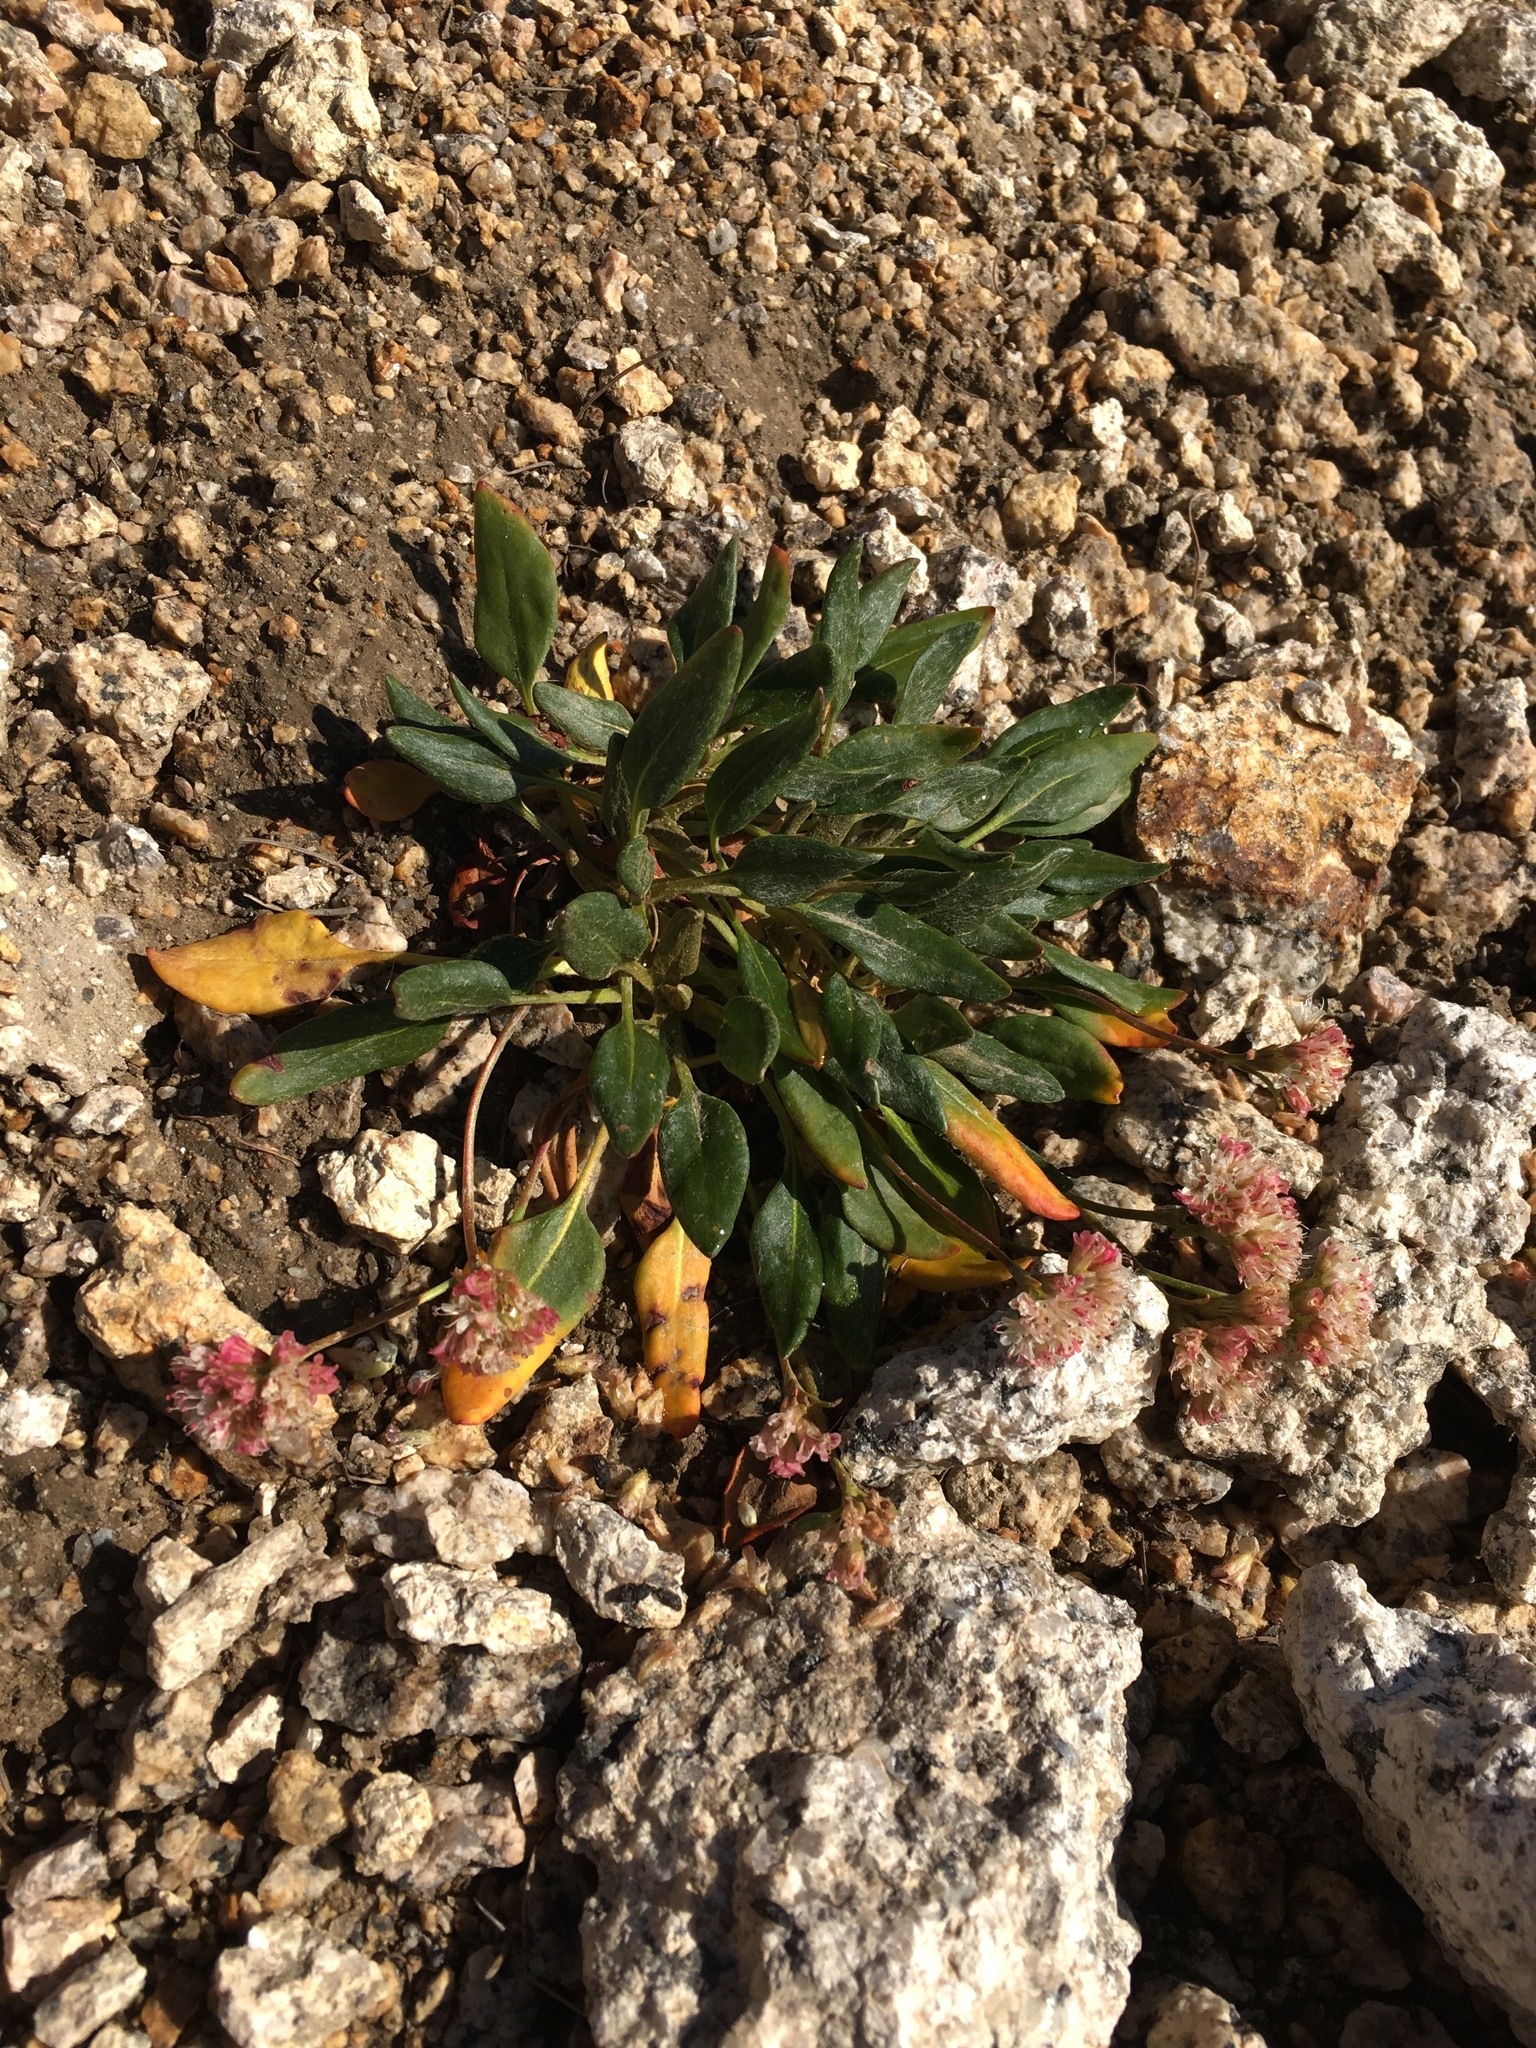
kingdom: Plantae
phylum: Tracheophyta
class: Magnoliopsida
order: Caryophyllales
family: Polygonaceae
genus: Eriogonum
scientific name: Eriogonum pyrolifolium
